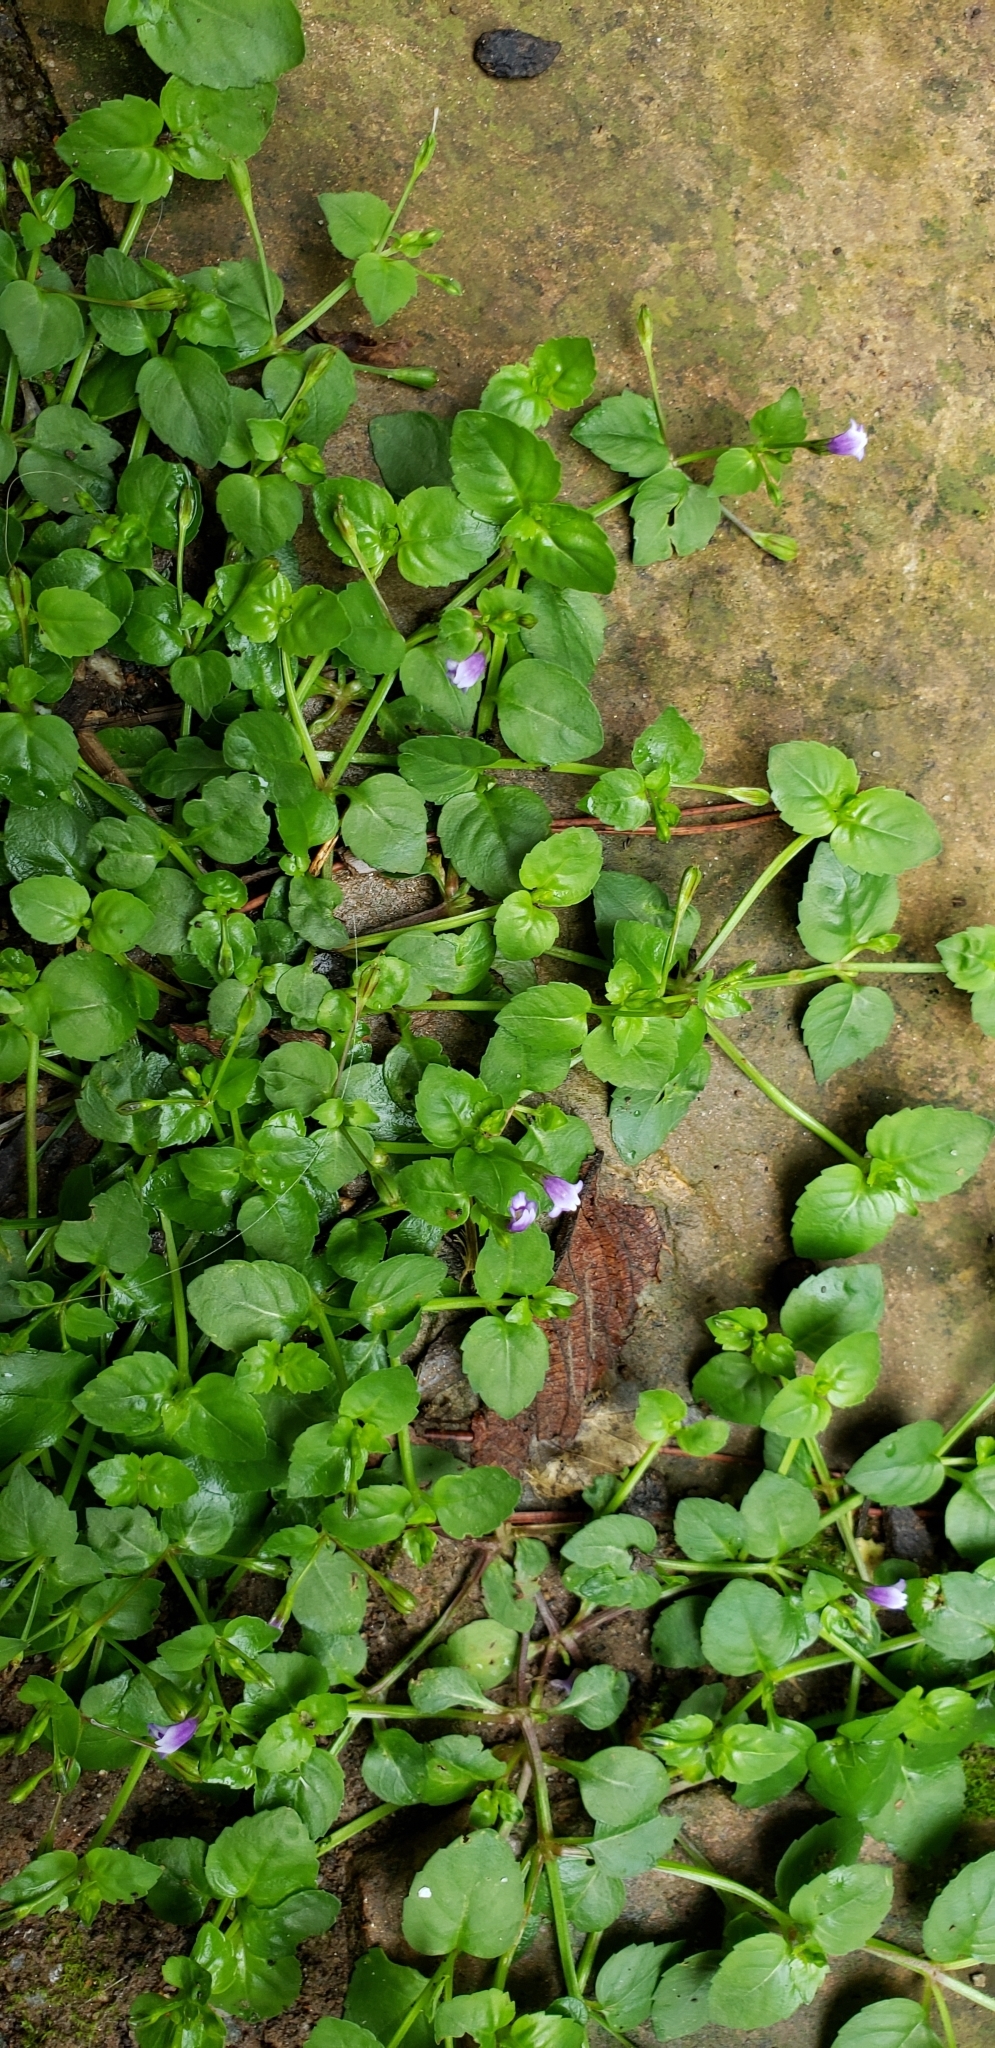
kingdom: Plantae
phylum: Tracheophyta
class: Magnoliopsida
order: Lamiales
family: Linderniaceae
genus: Torenia
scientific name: Torenia crustacea
